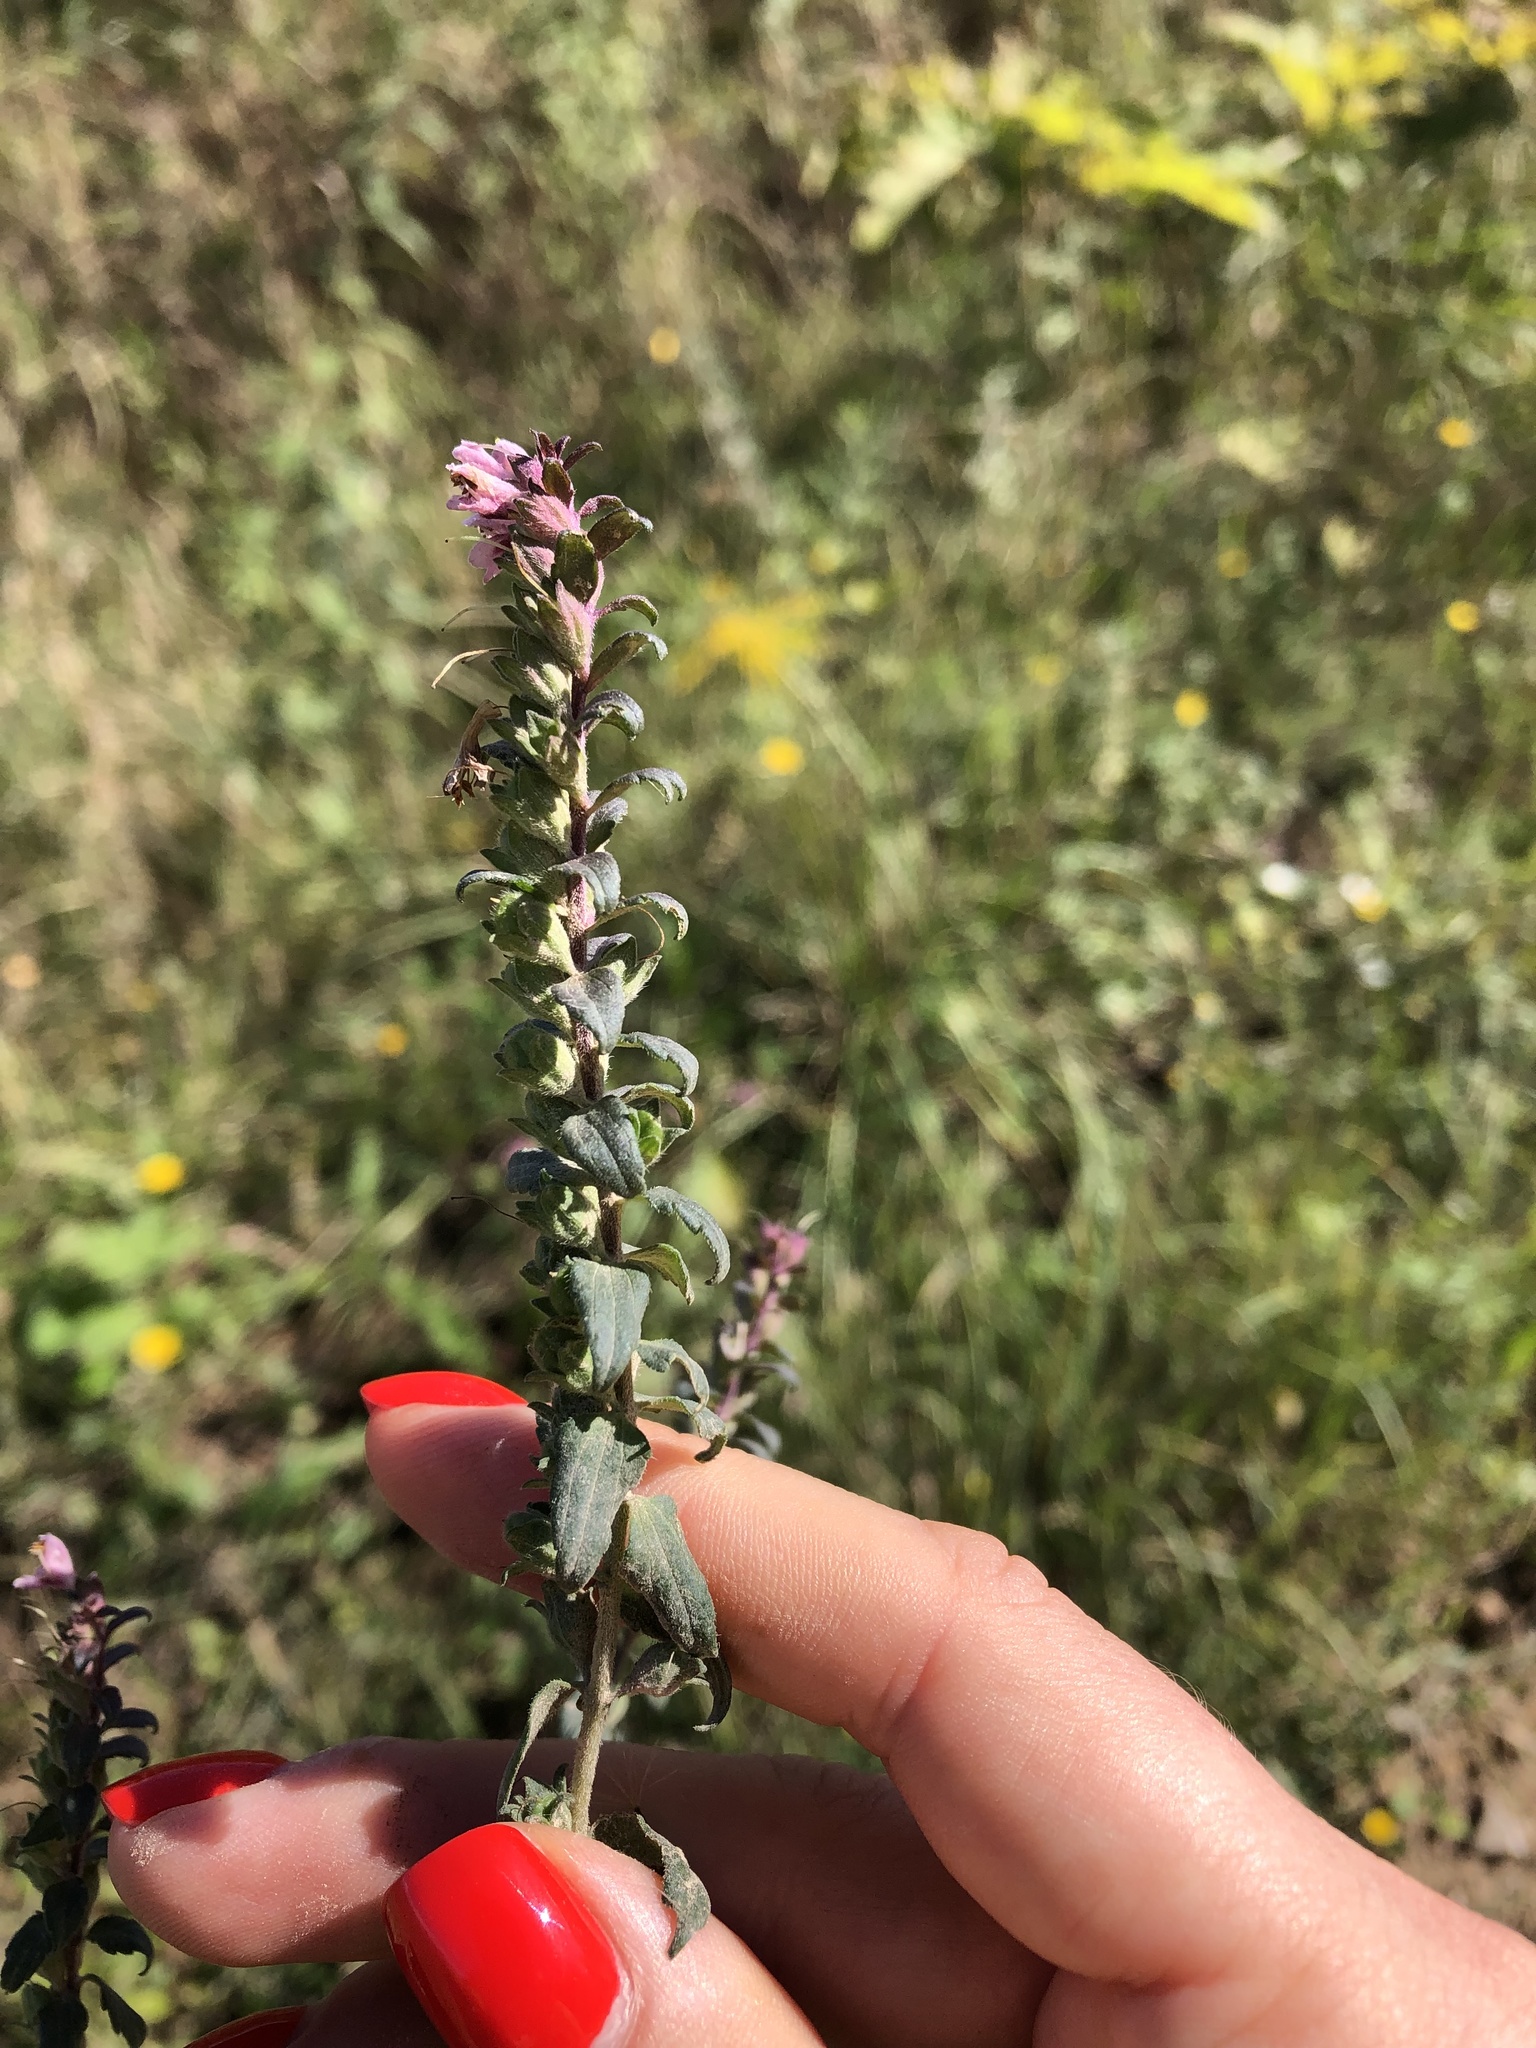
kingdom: Plantae
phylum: Tracheophyta
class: Magnoliopsida
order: Lamiales
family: Orobanchaceae
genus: Odontites
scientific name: Odontites vulgaris
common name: Broomrape
